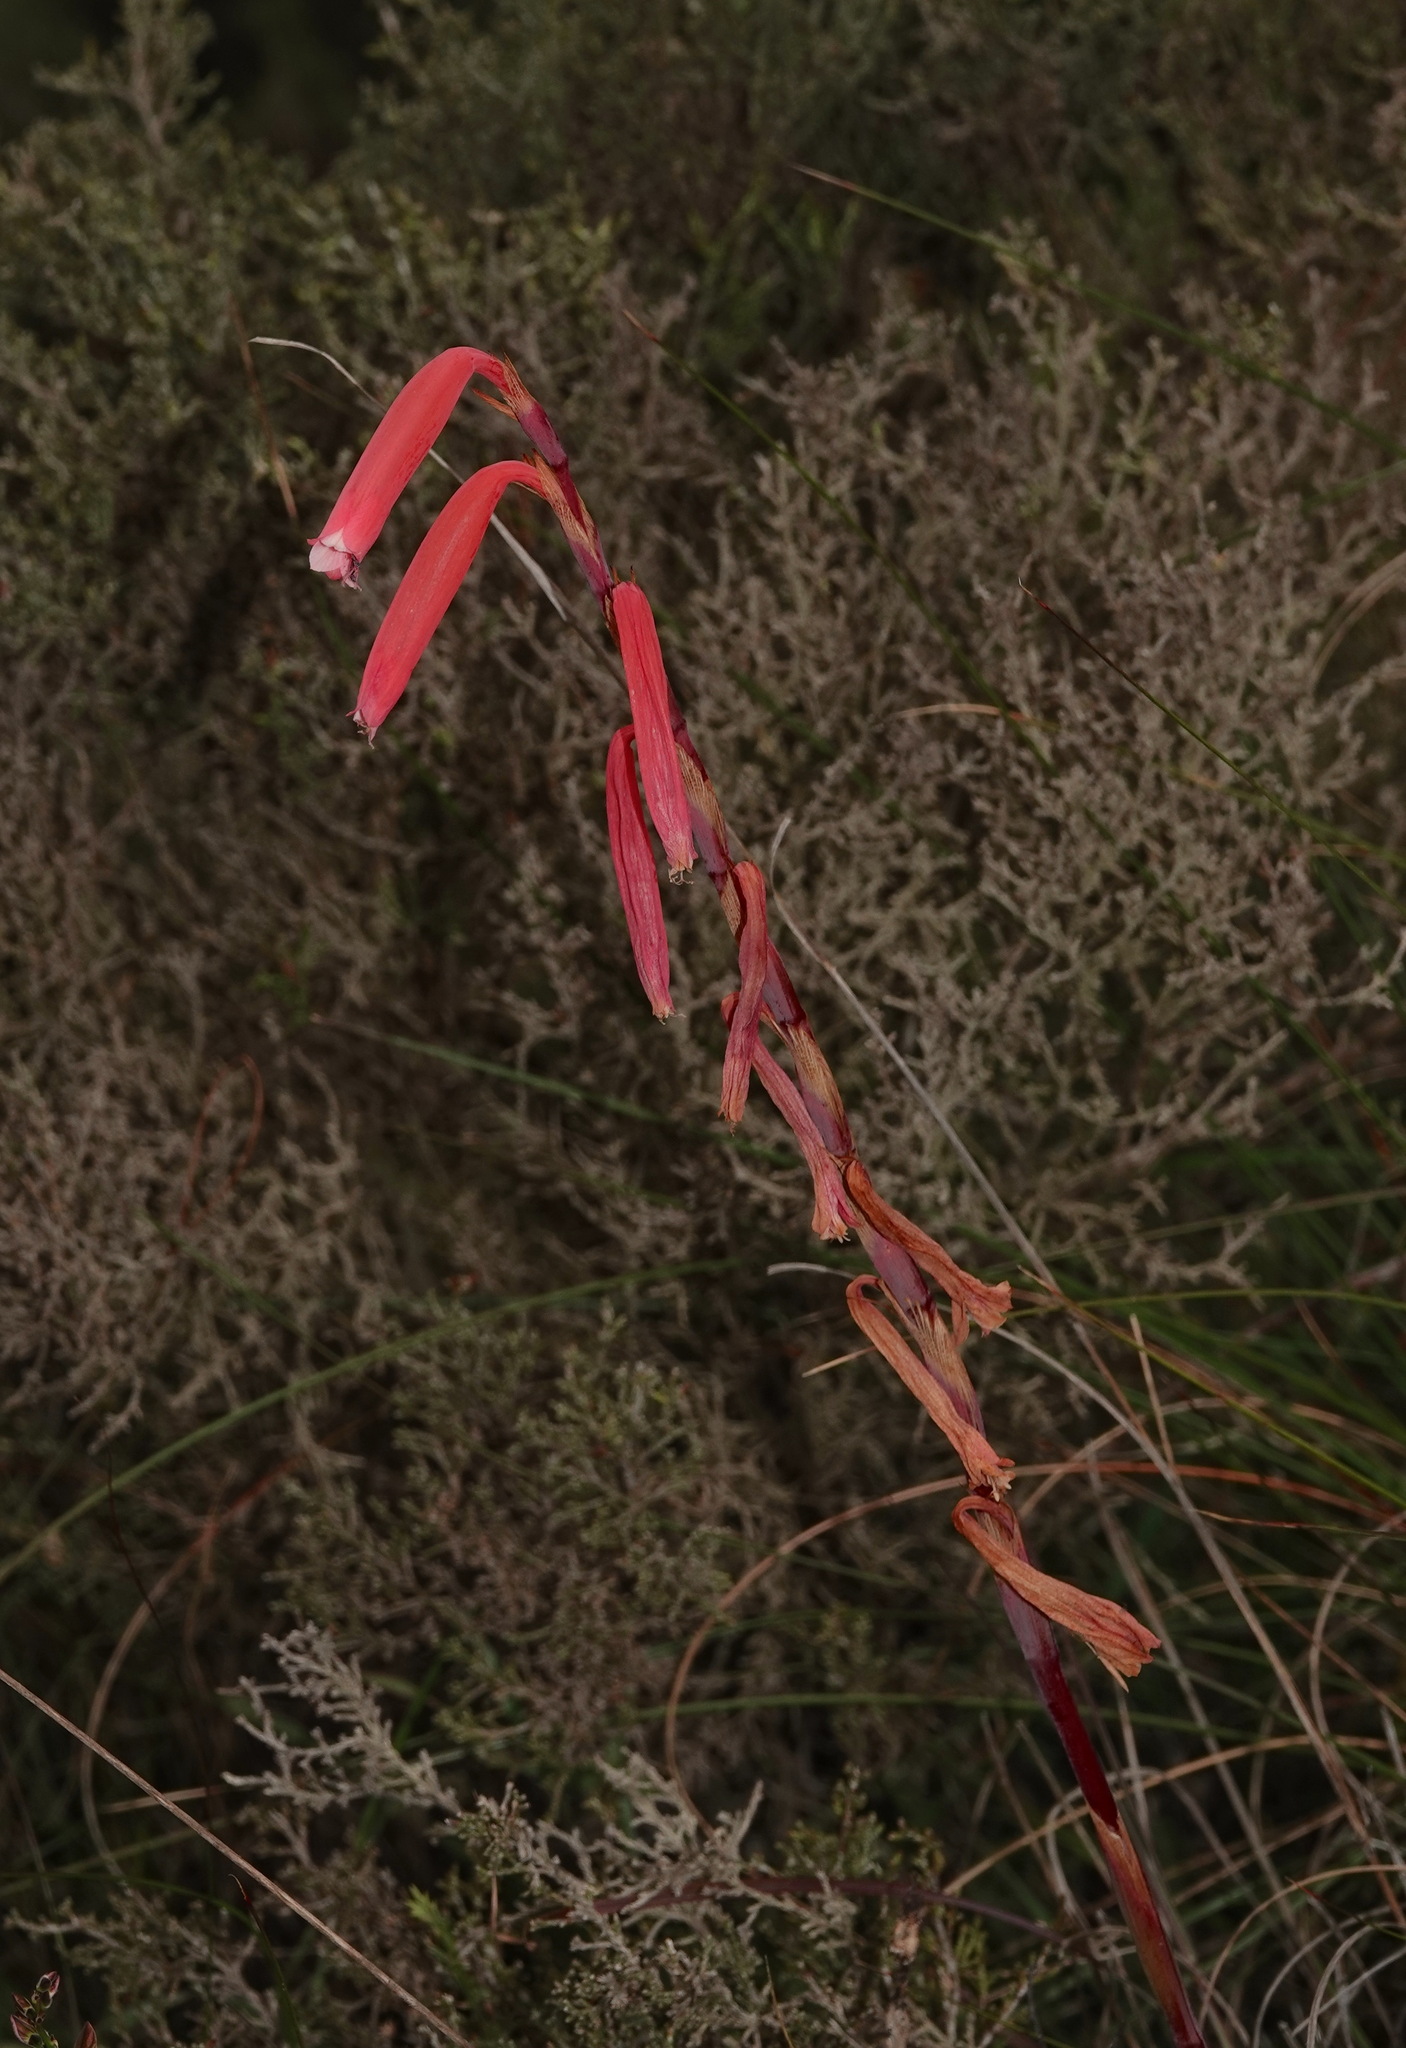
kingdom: Plantae
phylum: Tracheophyta
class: Liliopsida
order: Asparagales
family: Iridaceae
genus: Watsonia
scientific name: Watsonia aletroides
